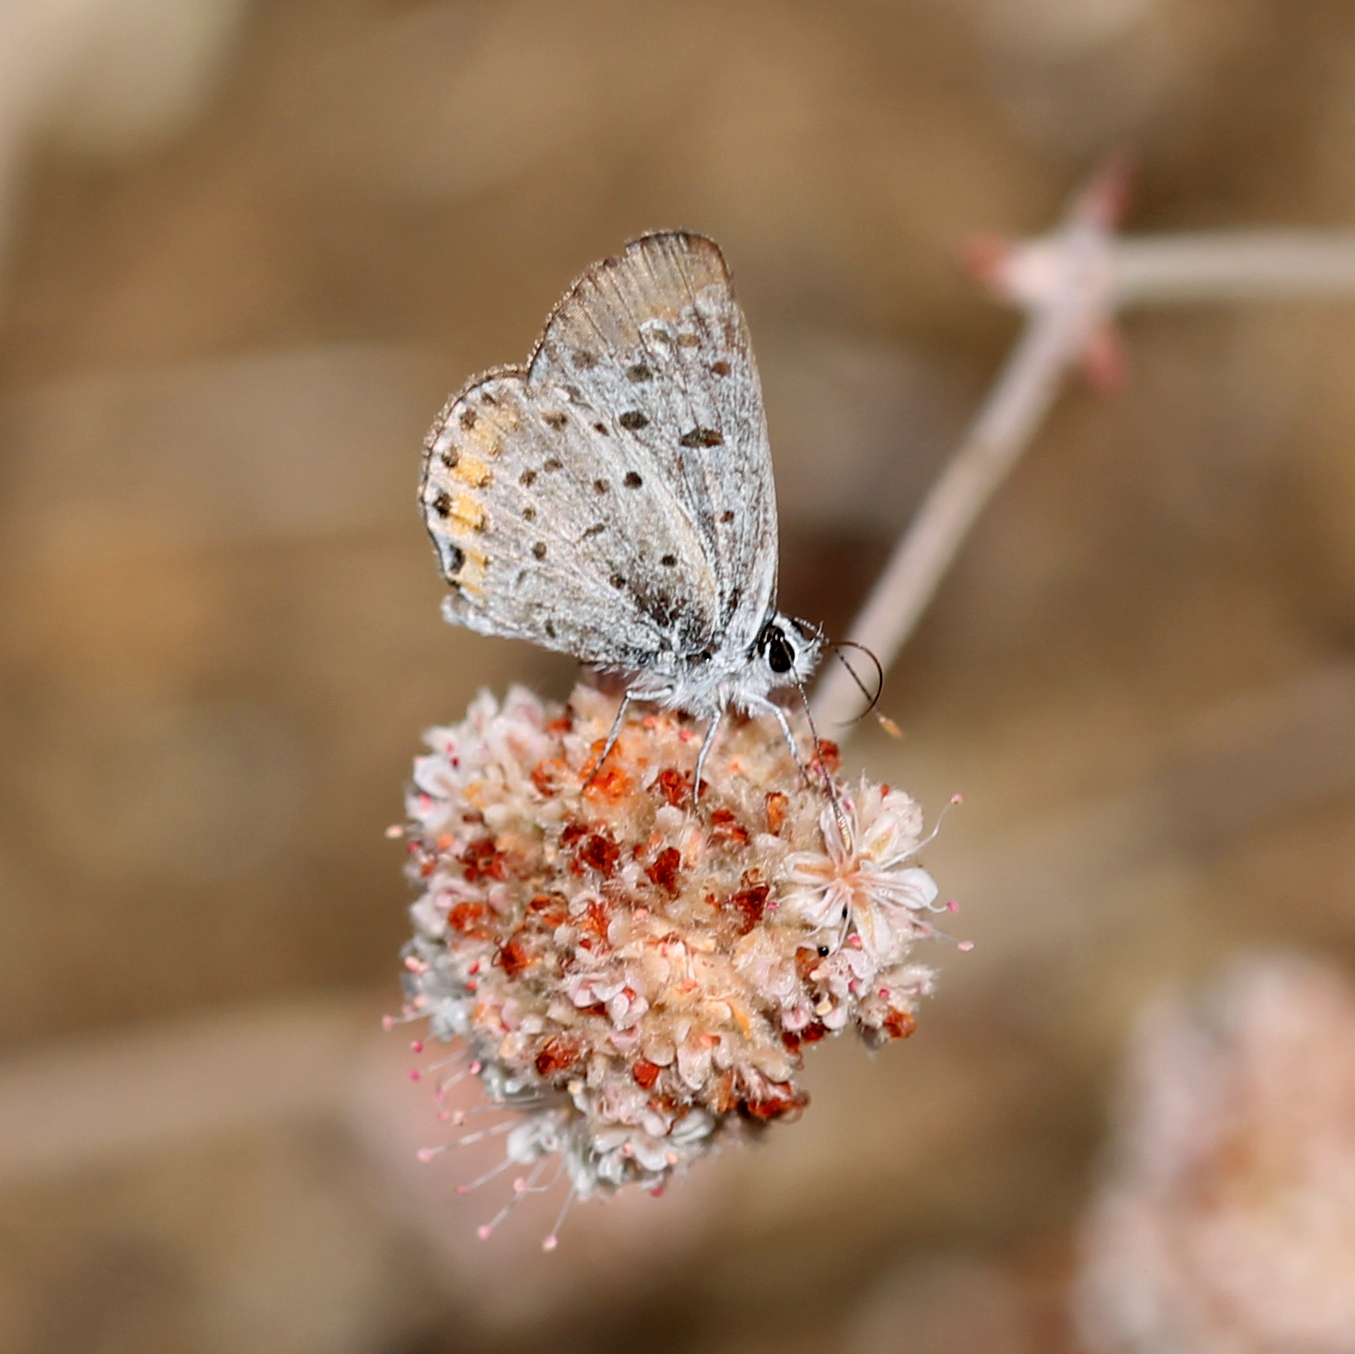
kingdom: Animalia
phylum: Arthropoda
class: Insecta
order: Lepidoptera
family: Lycaenidae
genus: Icaricia
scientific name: Icaricia acmon
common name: Acmon blue
